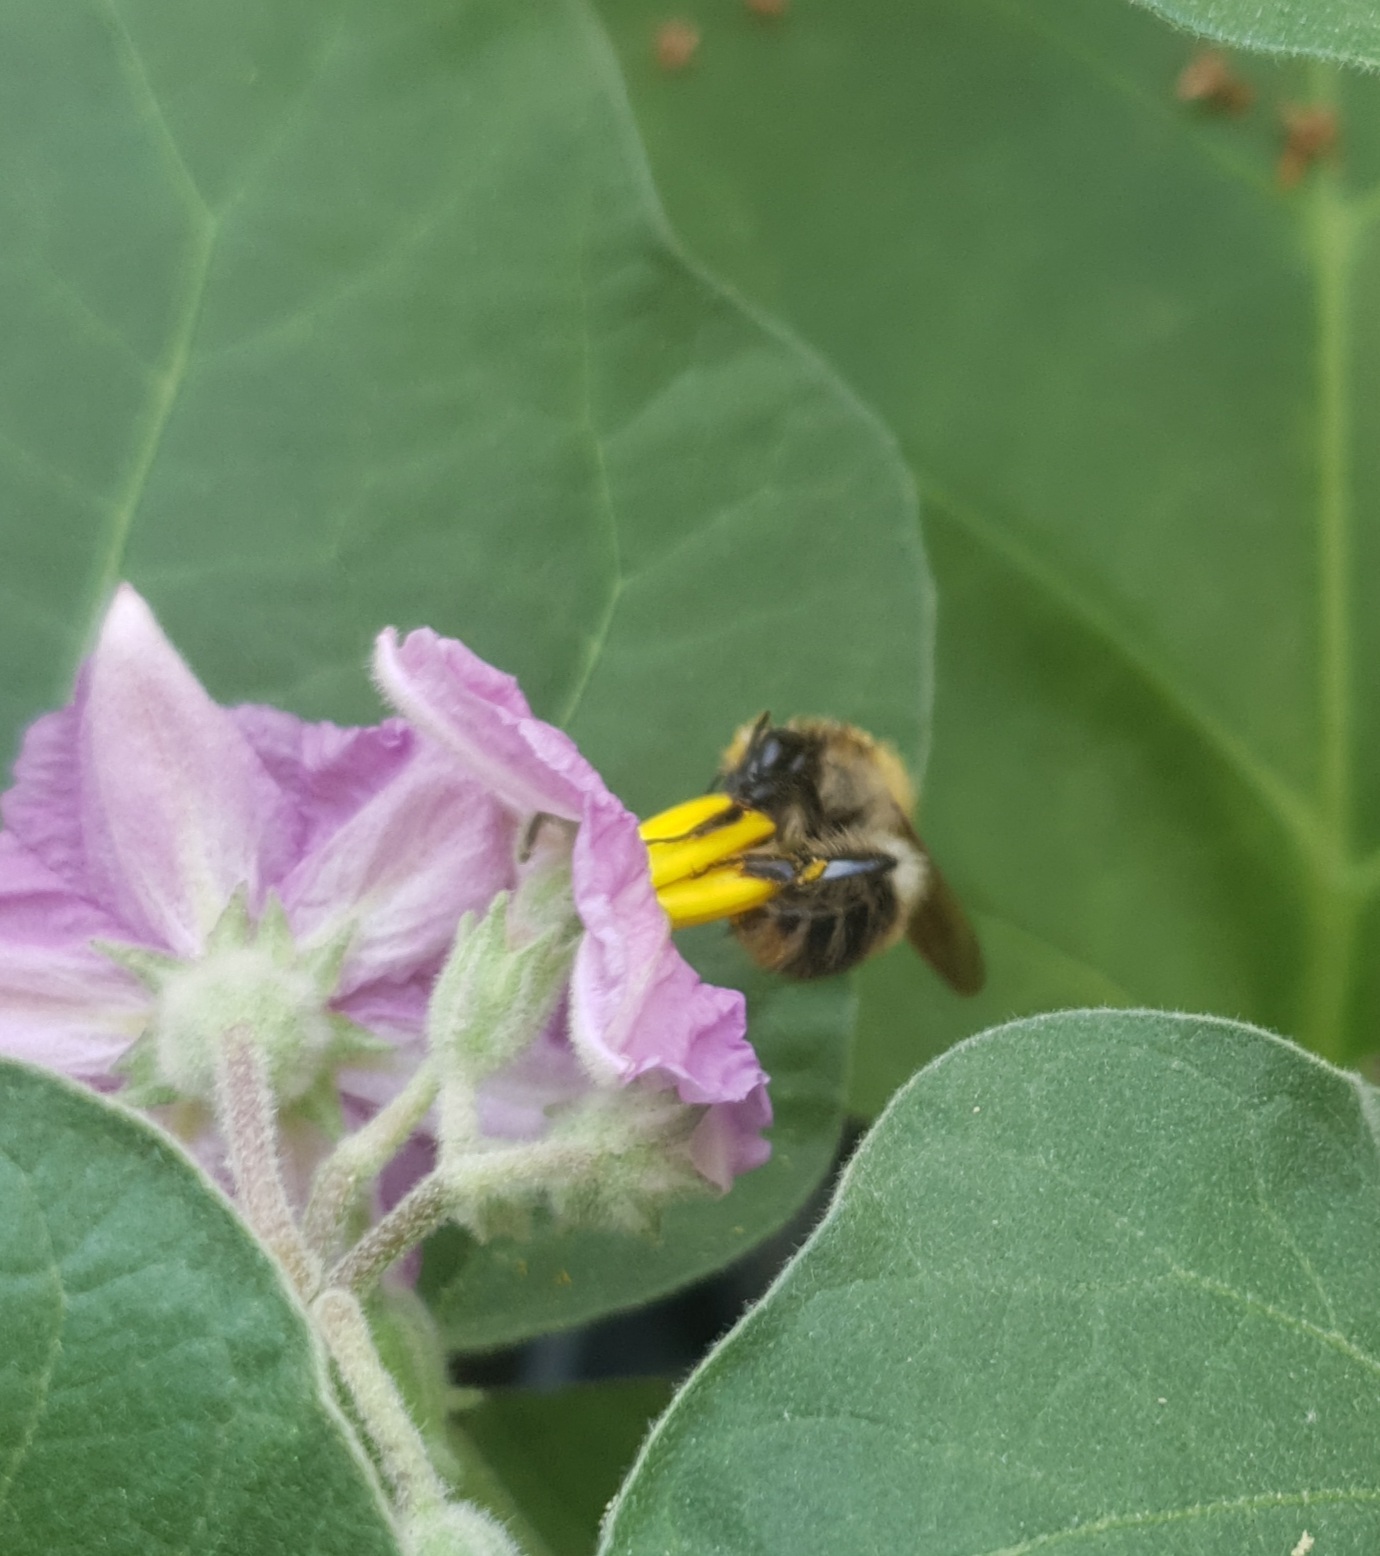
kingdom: Animalia
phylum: Arthropoda
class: Insecta
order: Hymenoptera
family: Apidae
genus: Bombus
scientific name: Bombus pascuorum
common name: Common carder bee
